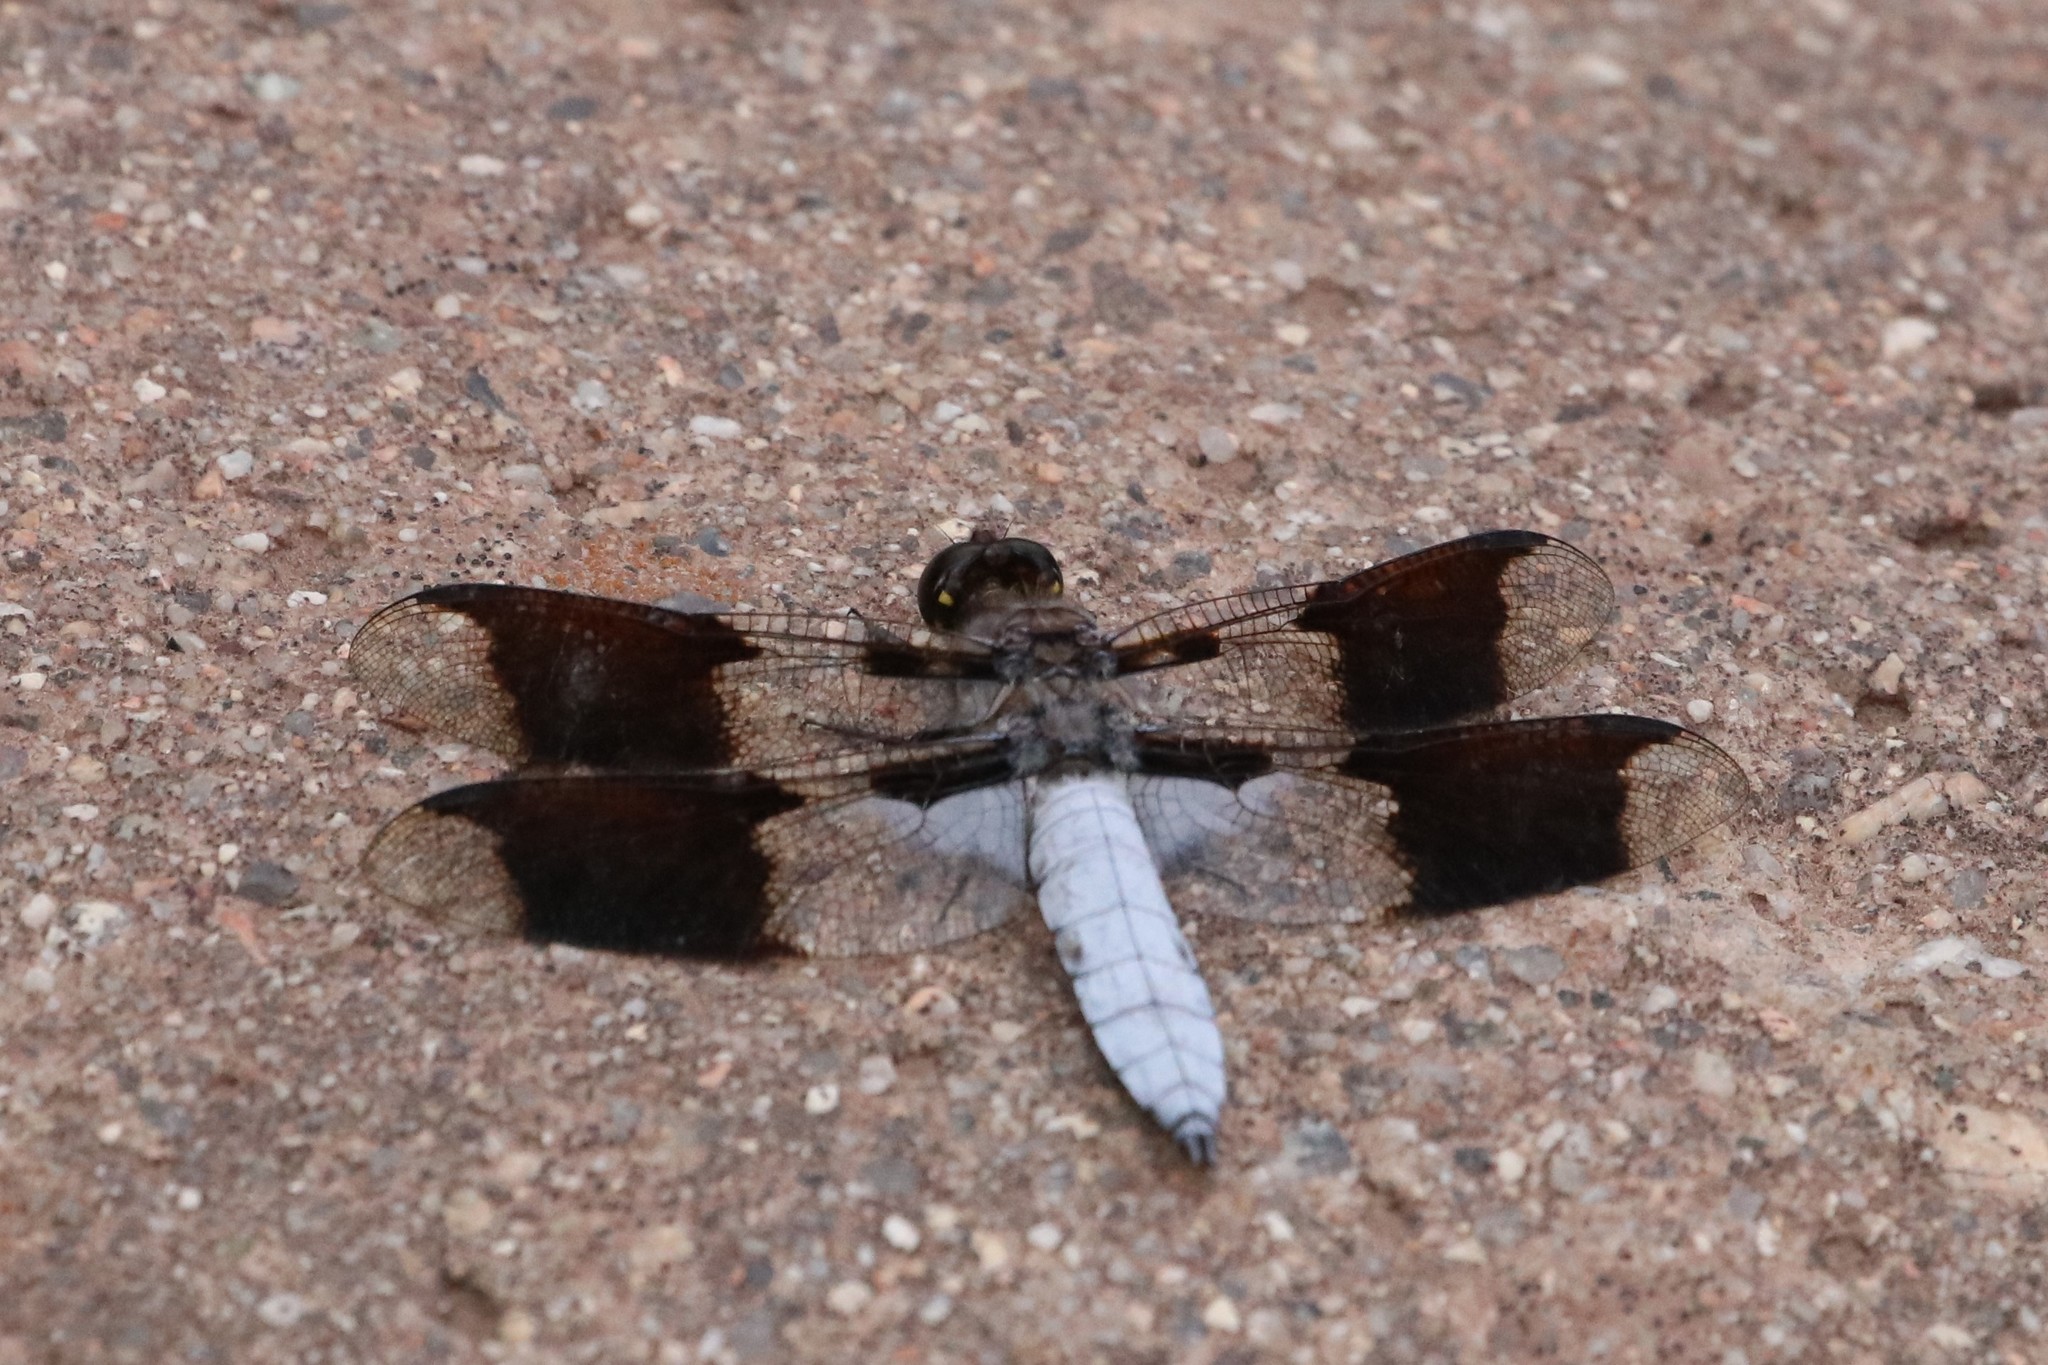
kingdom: Animalia
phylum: Arthropoda
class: Insecta
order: Odonata
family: Libellulidae
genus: Plathemis
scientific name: Plathemis lydia
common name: Common whitetail
